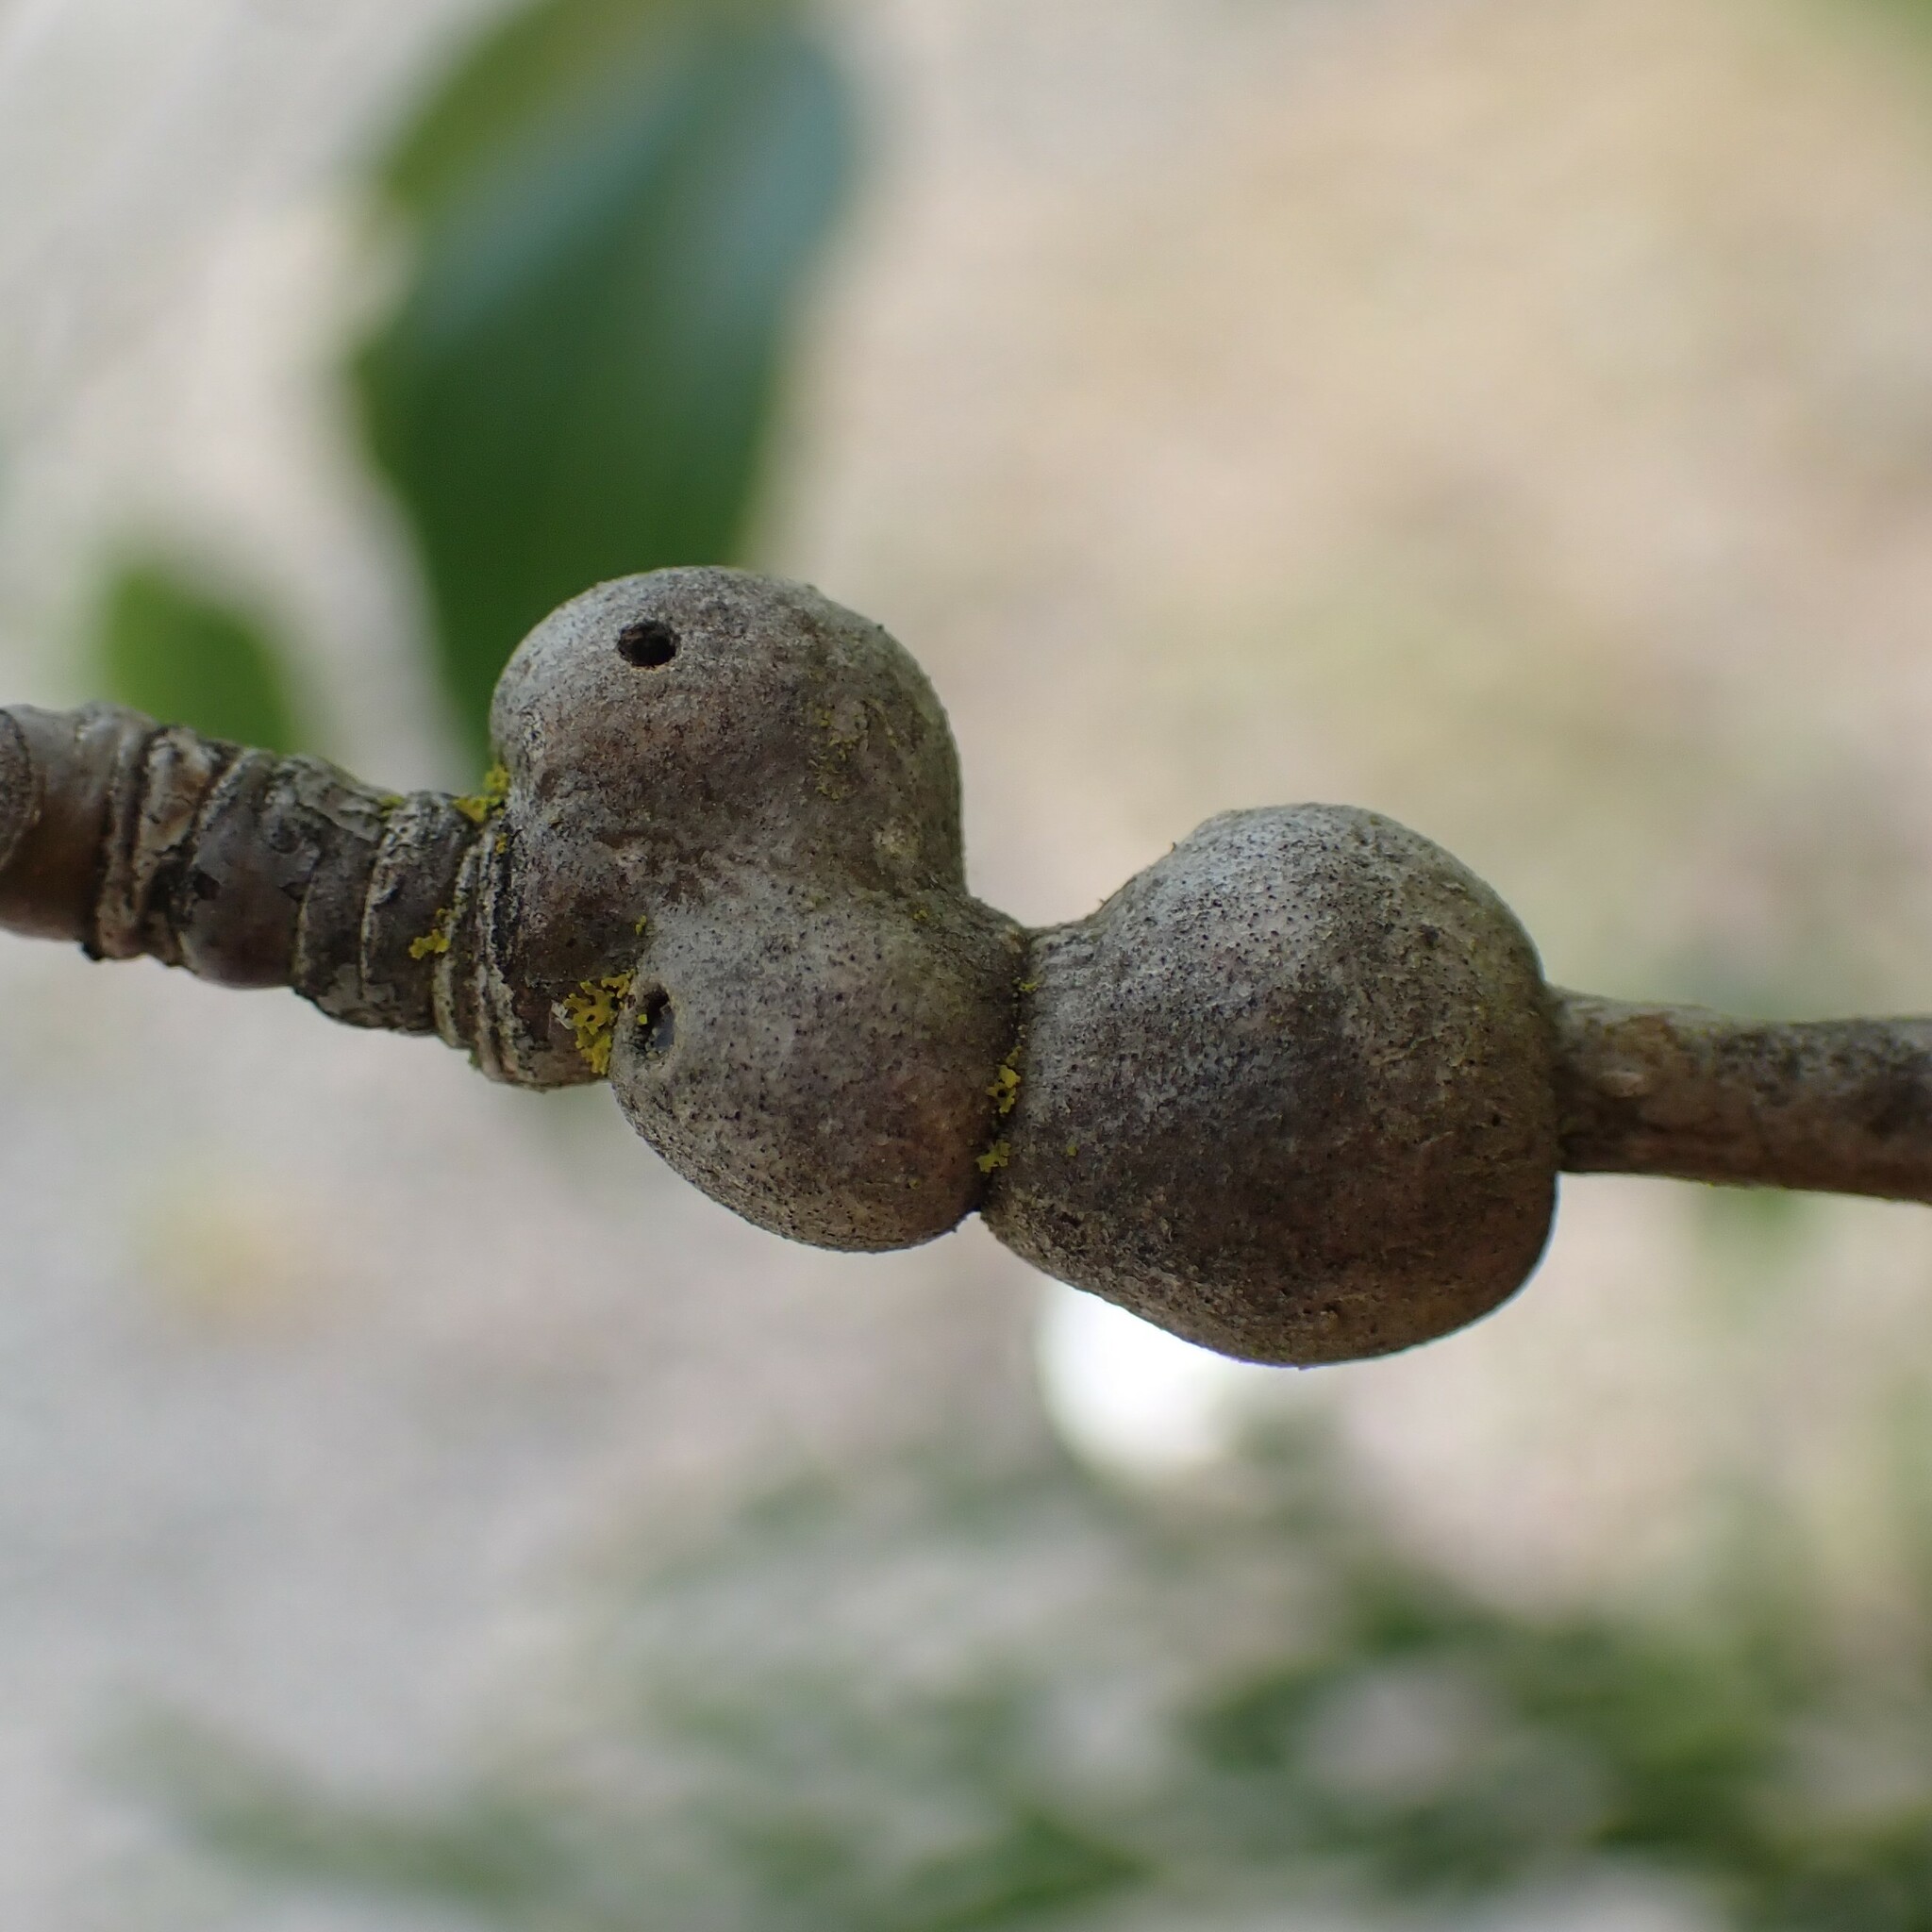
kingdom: Animalia
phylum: Arthropoda
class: Insecta
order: Diptera
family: Agromyzidae
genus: Euhexomyza
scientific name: Euhexomyza schineri
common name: Poplar twiggall fly
